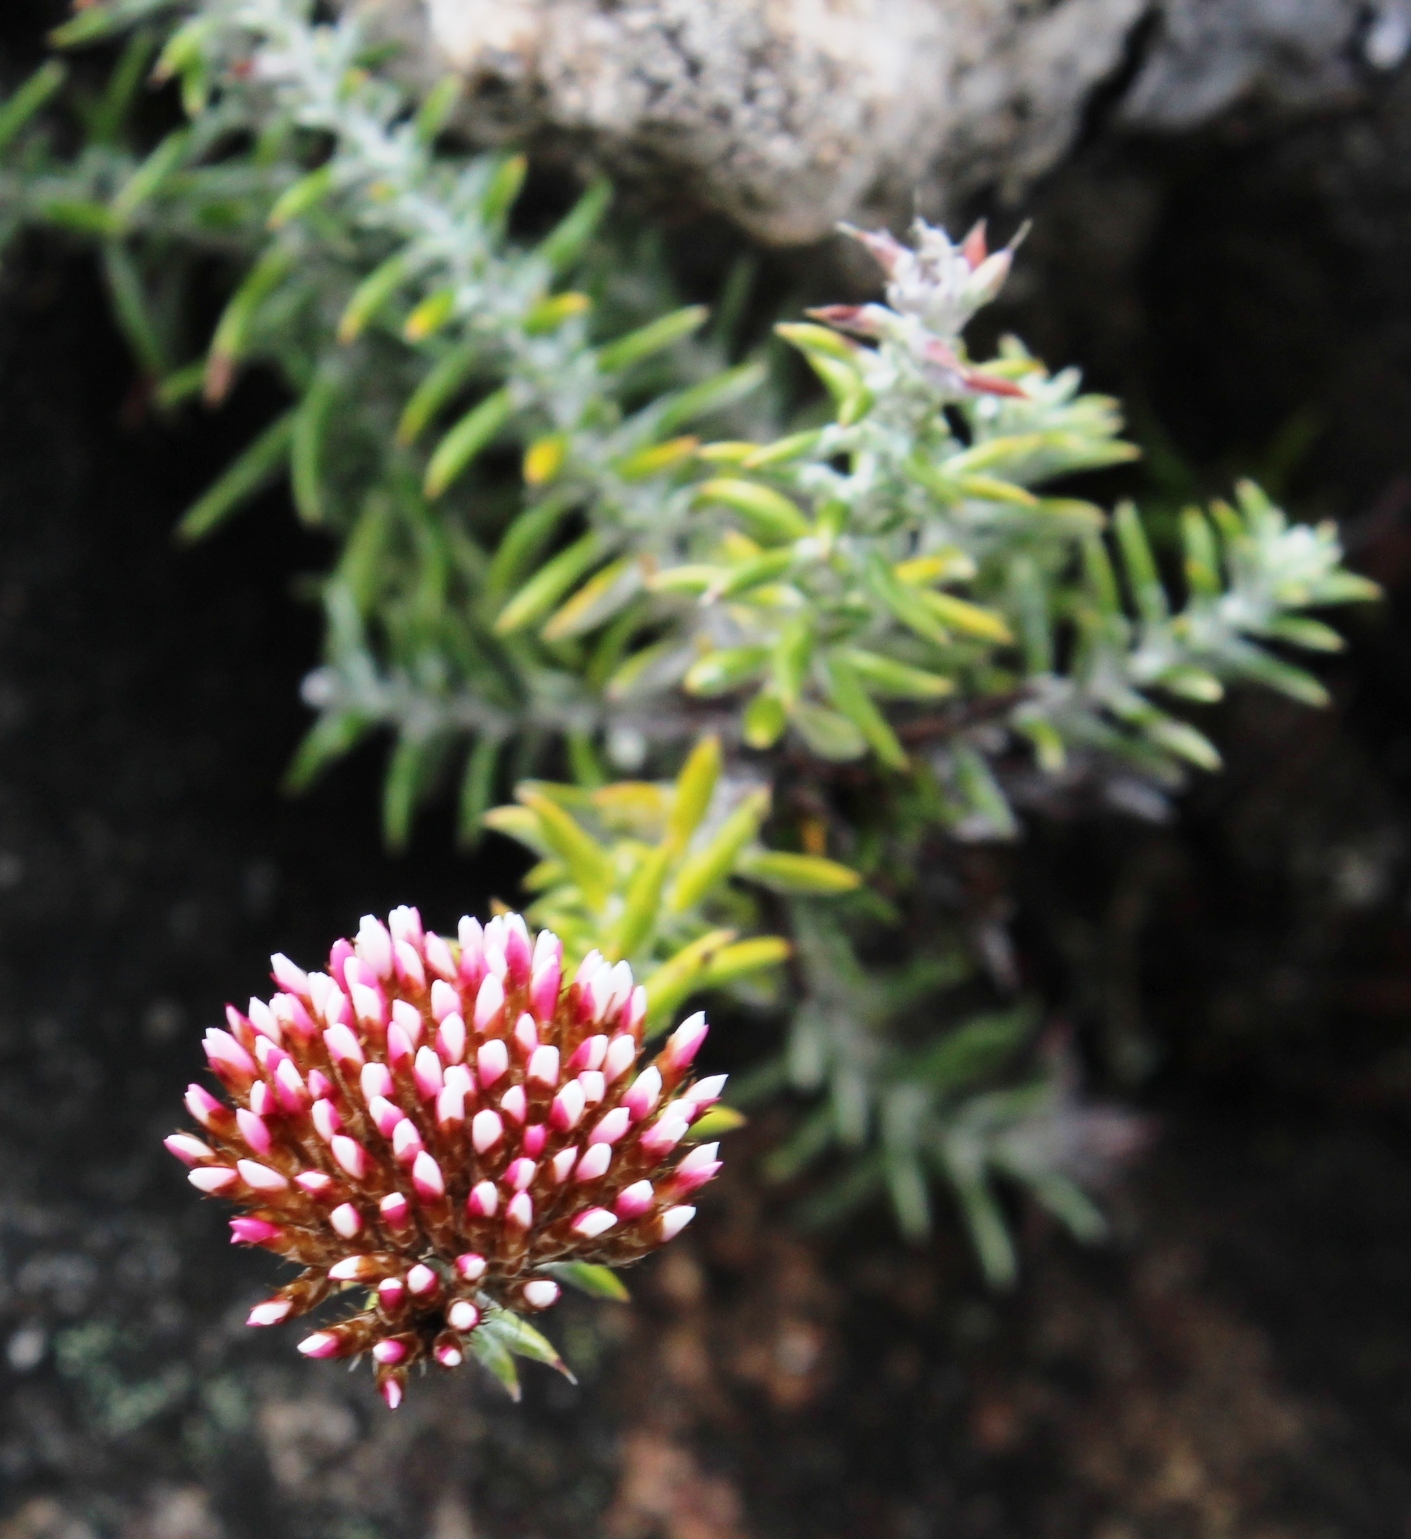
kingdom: Plantae
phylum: Tracheophyta
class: Magnoliopsida
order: Asterales
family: Asteraceae
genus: Metalasia
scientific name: Metalasia densa
